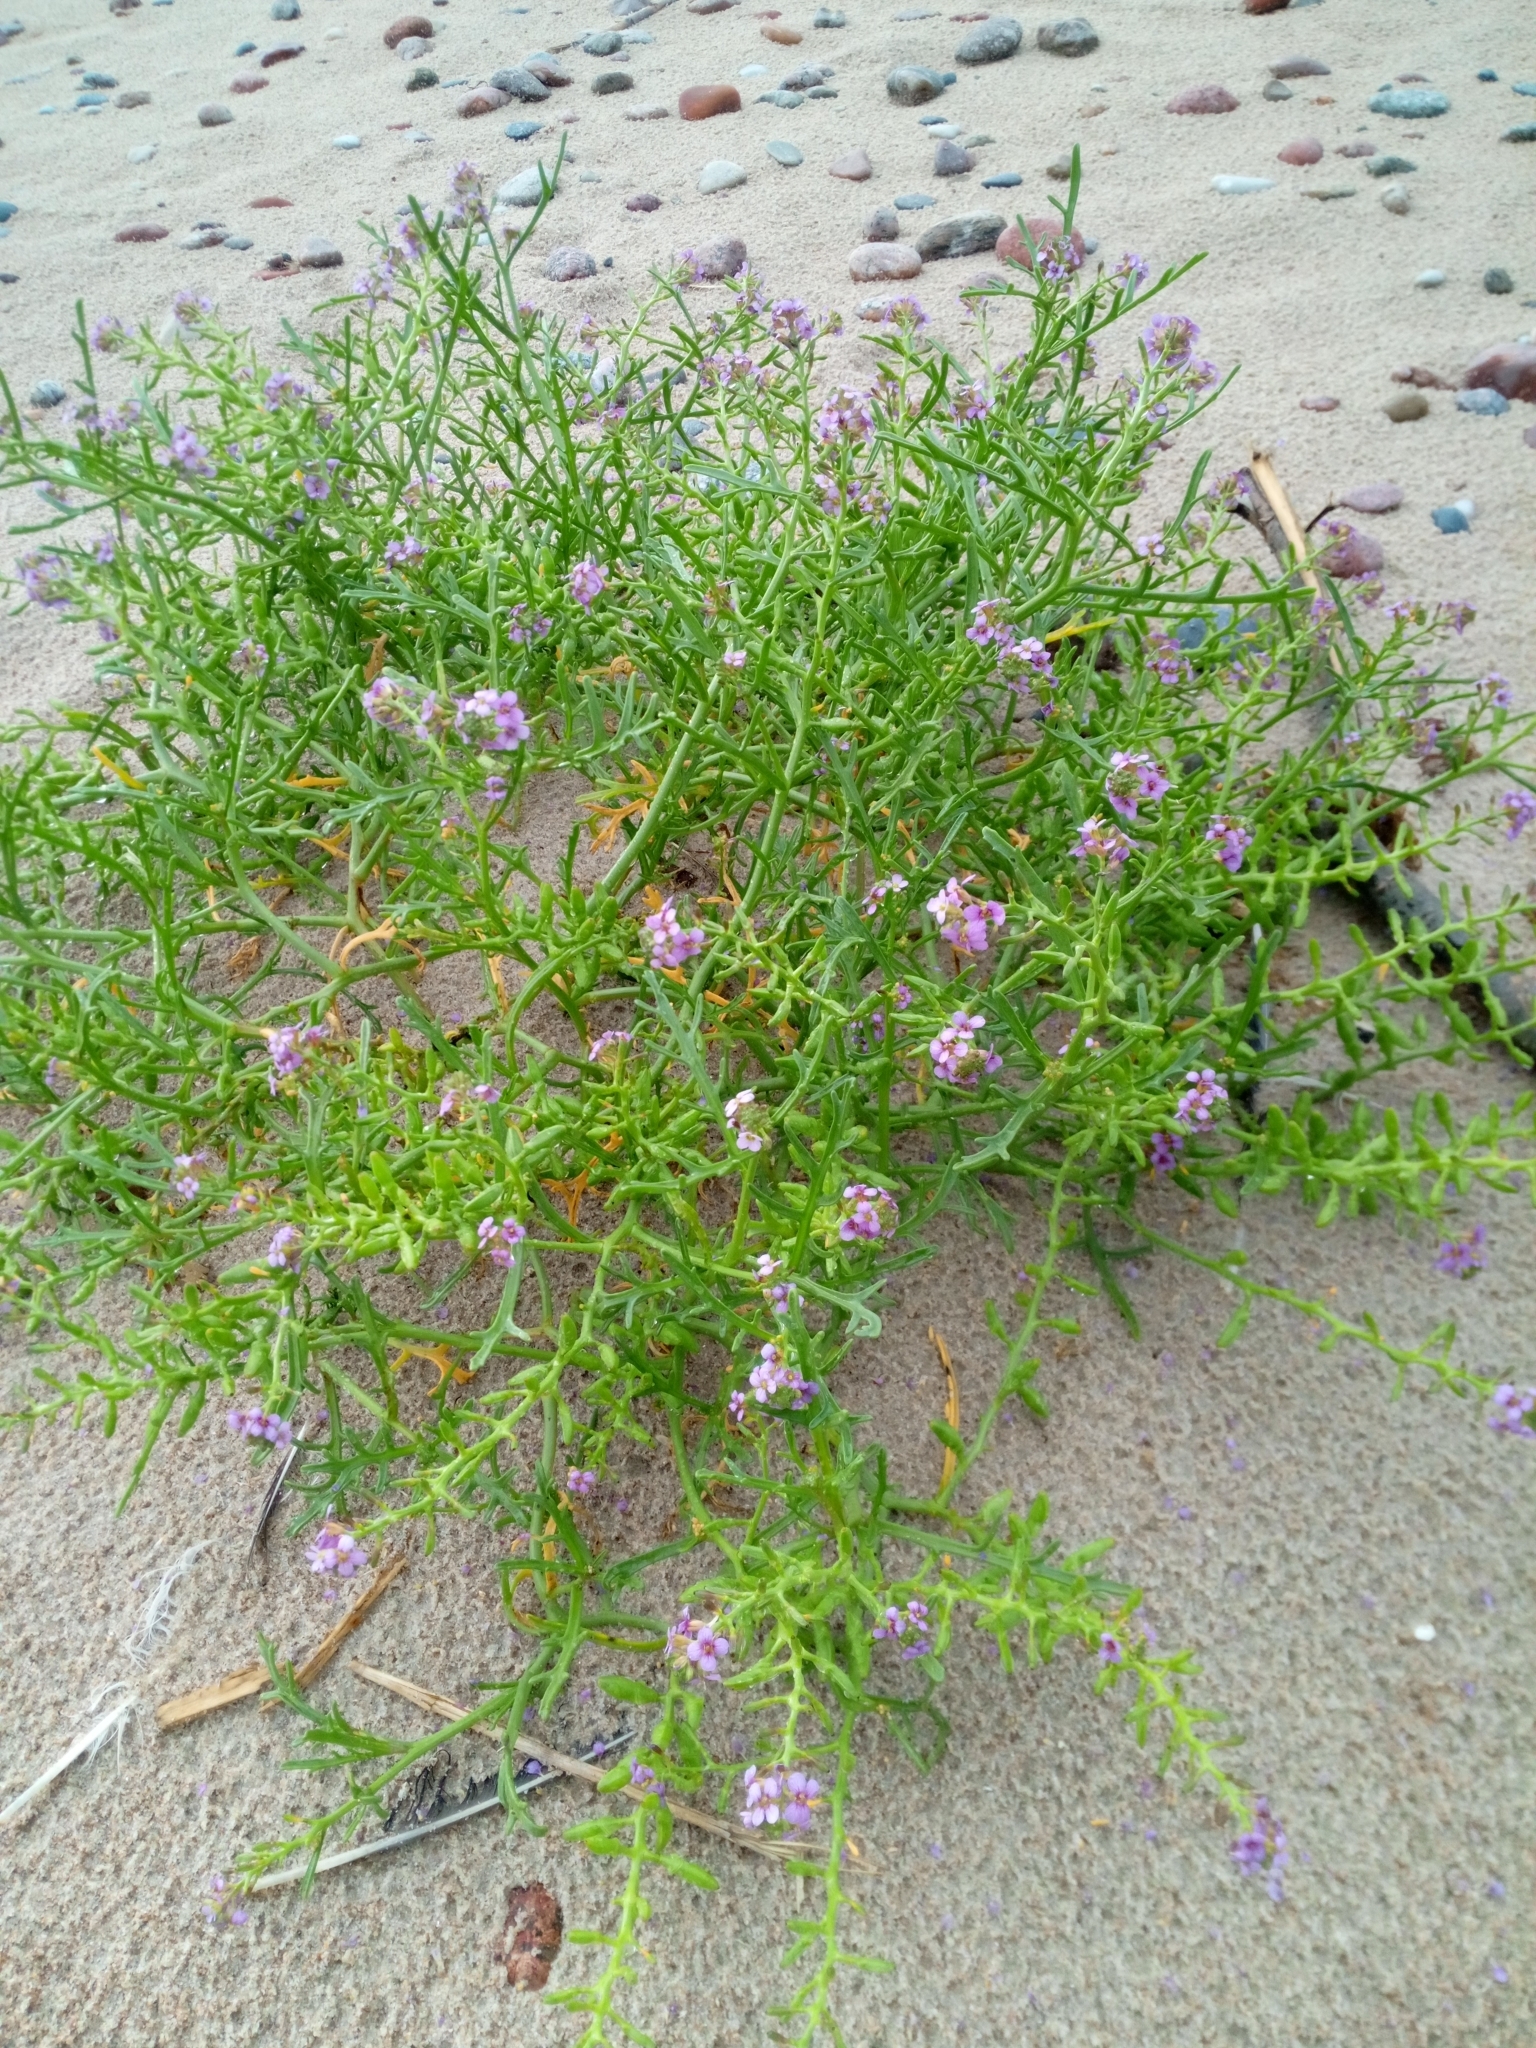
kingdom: Plantae
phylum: Tracheophyta
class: Magnoliopsida
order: Brassicales
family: Brassicaceae
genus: Cakile
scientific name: Cakile maritima
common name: Sea rocket
